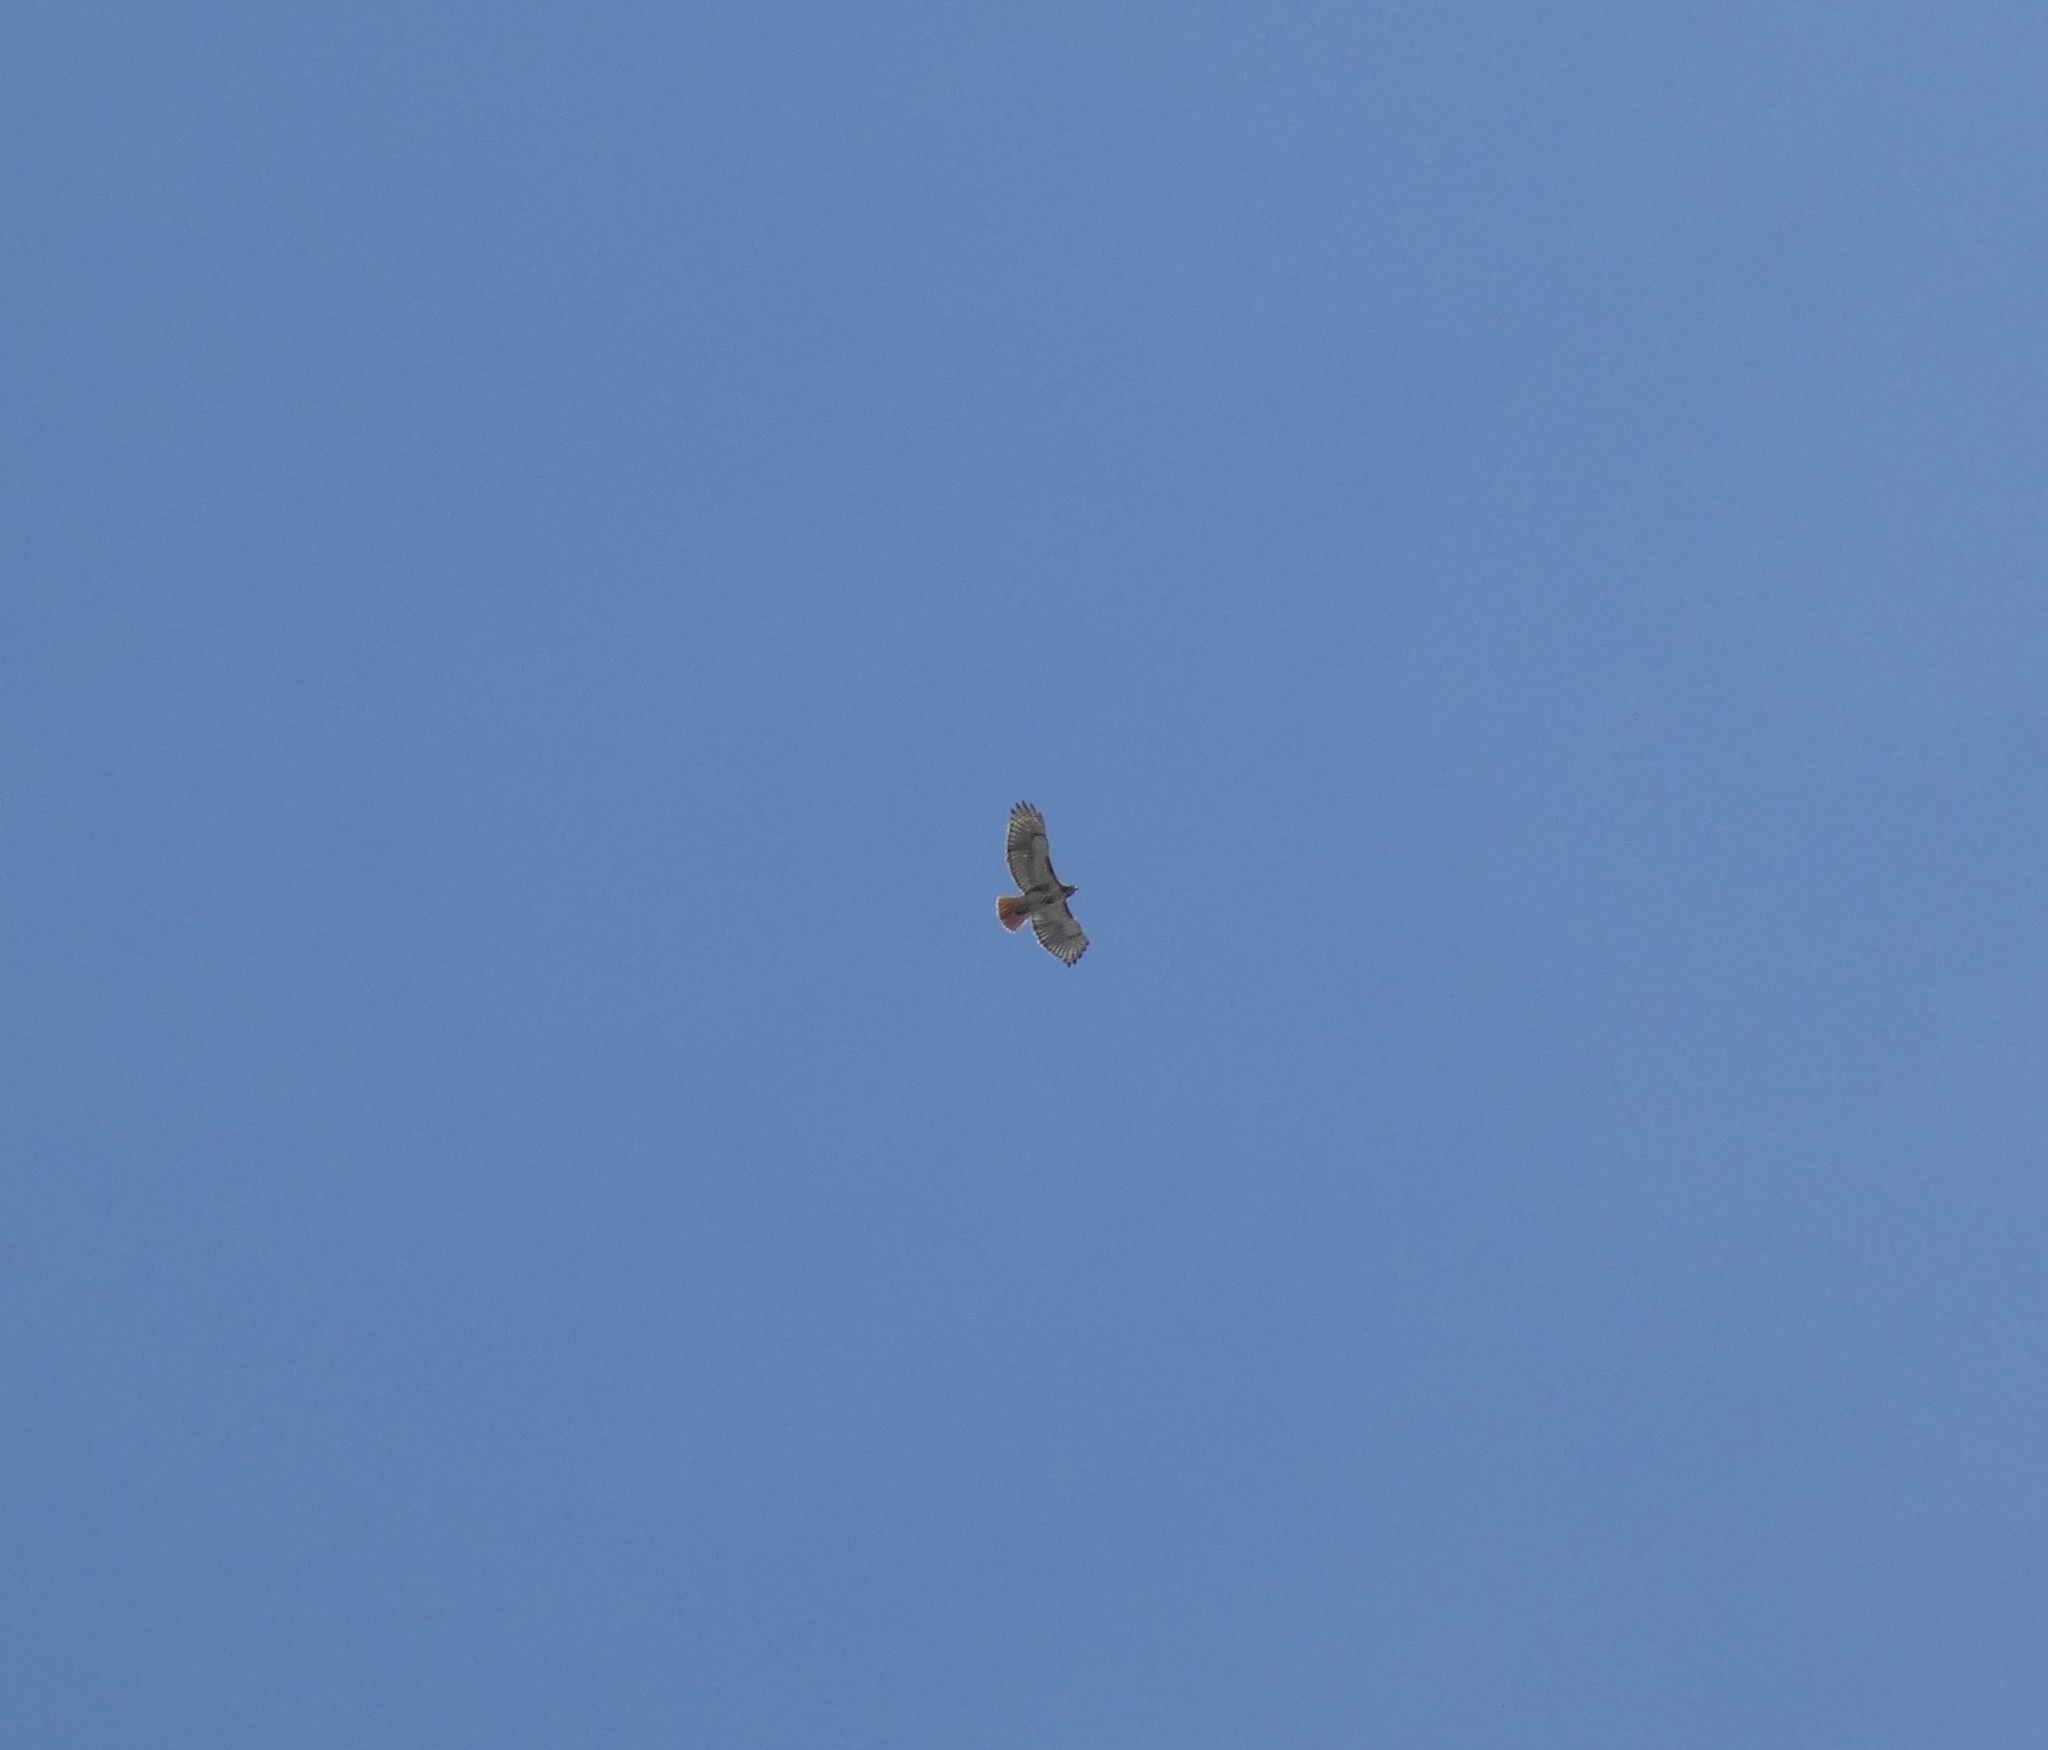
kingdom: Animalia
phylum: Chordata
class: Aves
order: Accipitriformes
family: Accipitridae
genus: Buteo
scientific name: Buteo jamaicensis
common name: Red-tailed hawk
